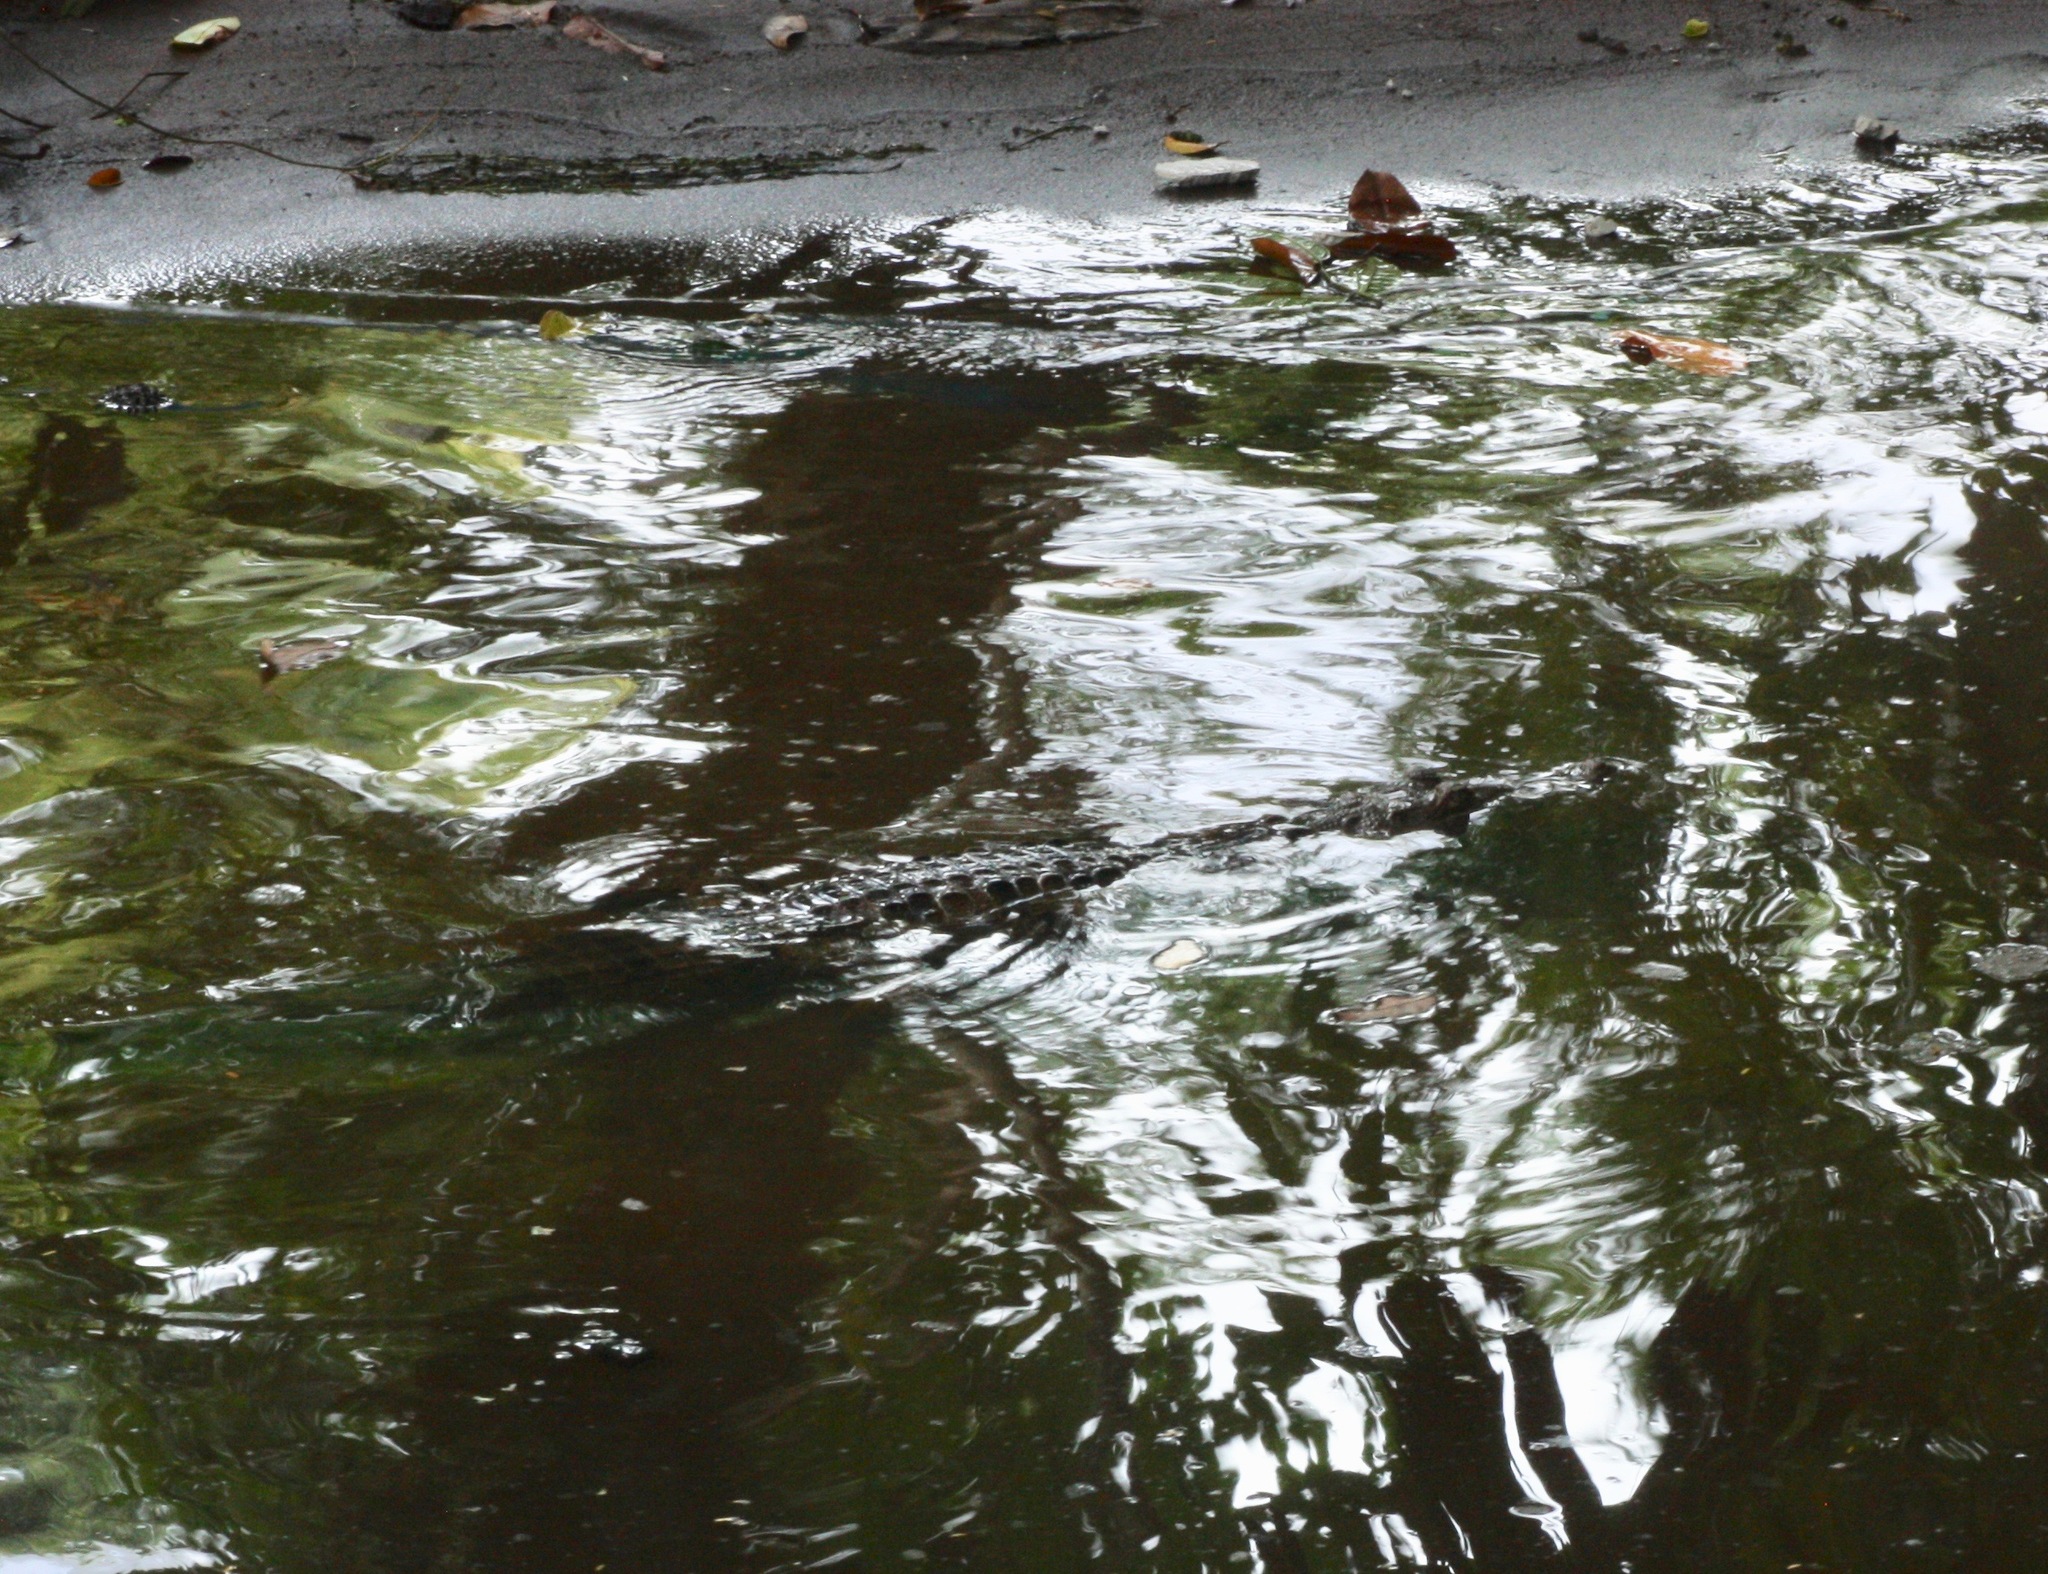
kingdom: Animalia
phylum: Chordata
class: Crocodylia
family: Crocodylidae
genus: Crocodylus
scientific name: Crocodylus acutus
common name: American crocodile
